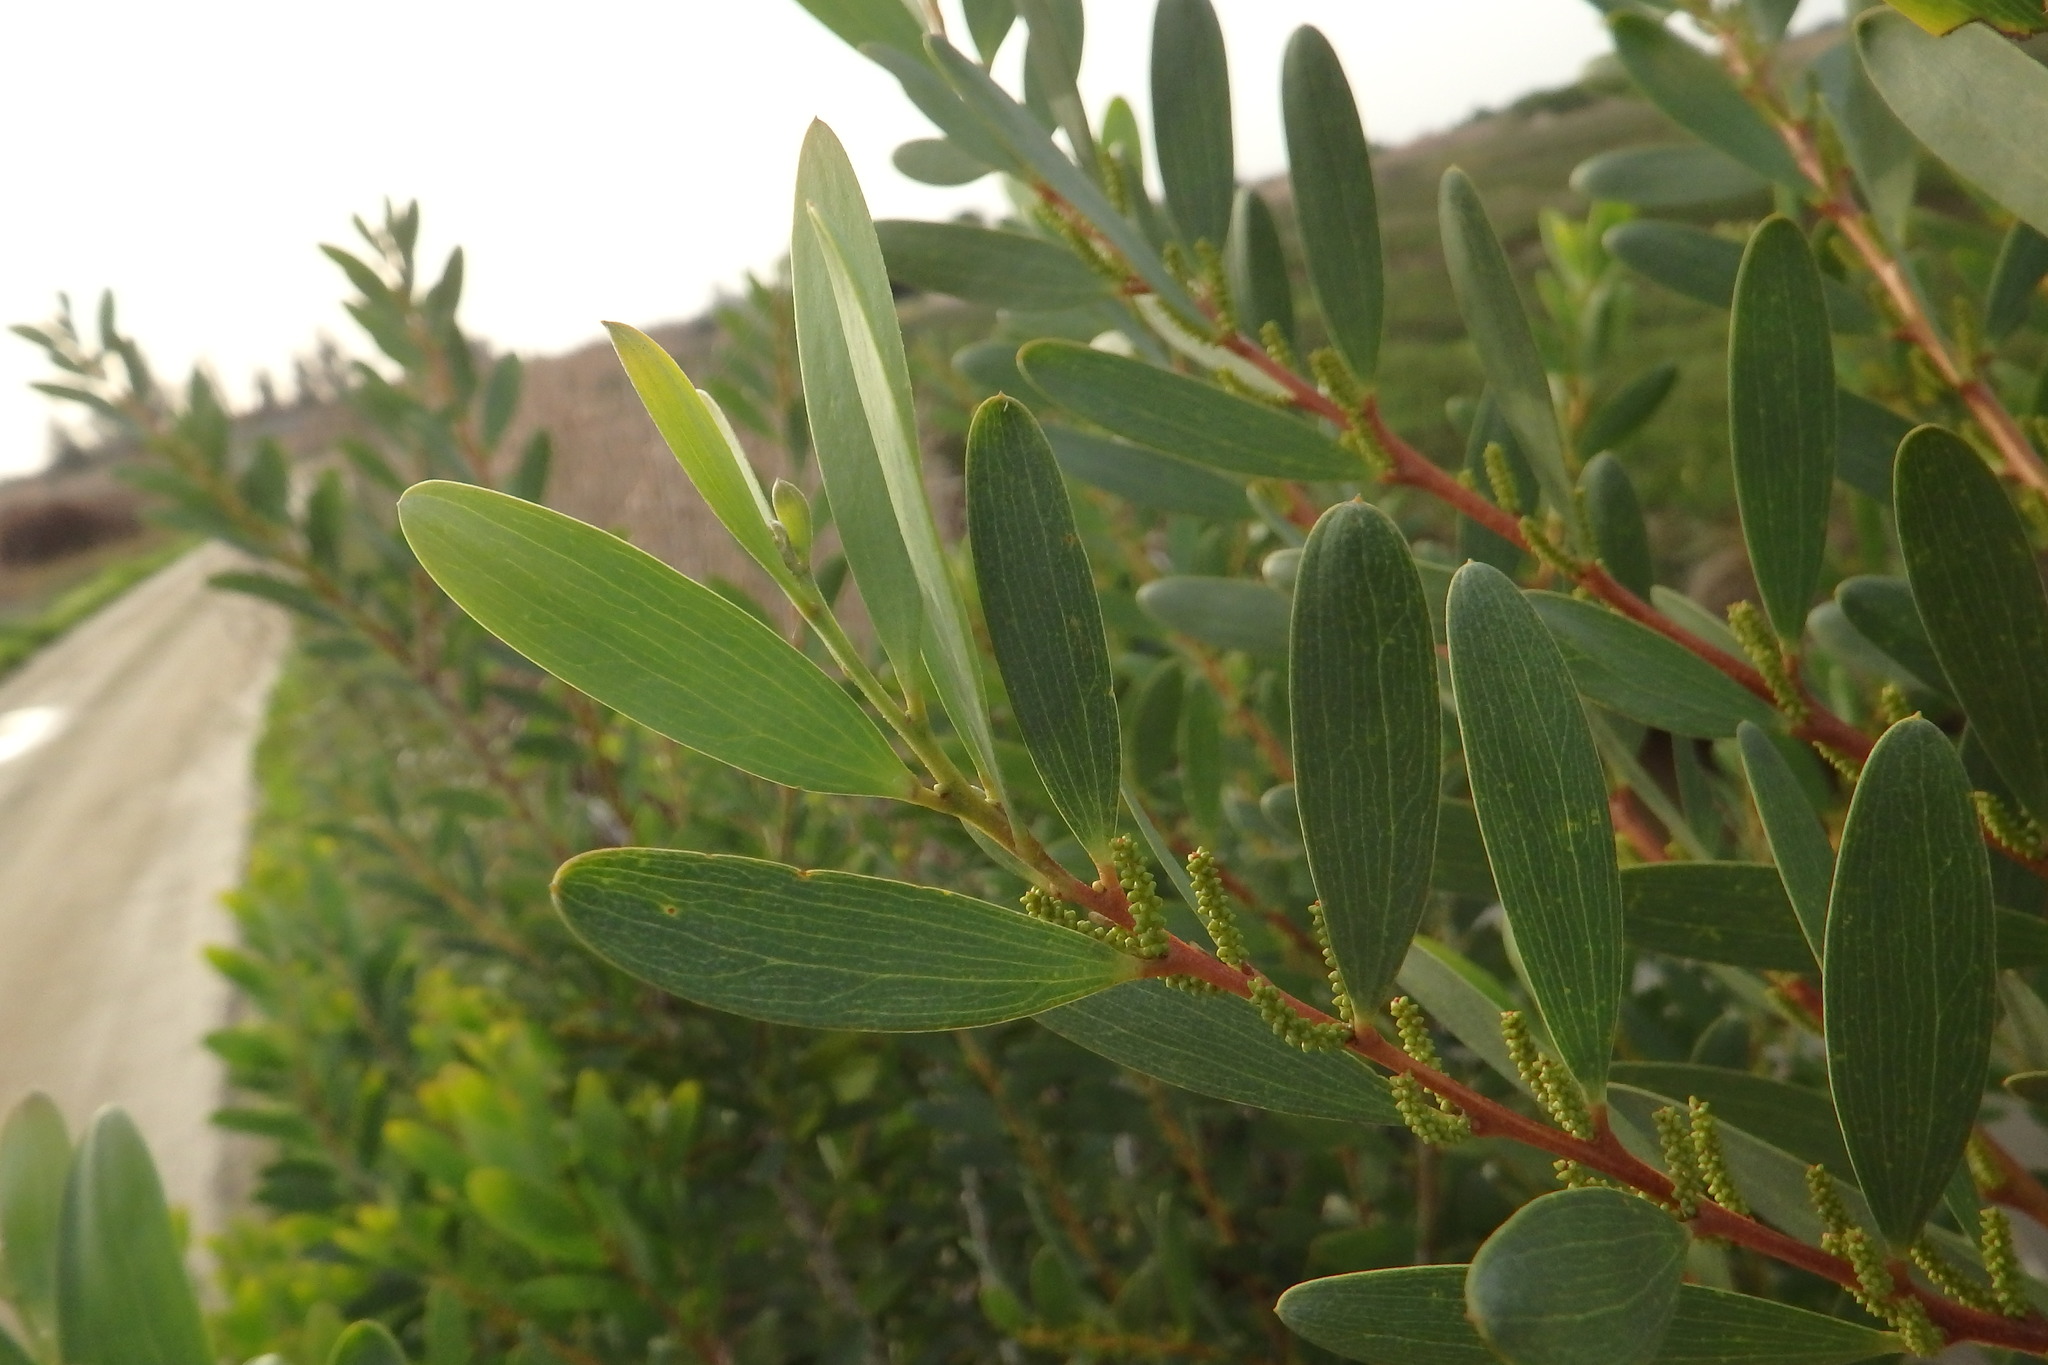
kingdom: Plantae
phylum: Tracheophyta
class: Magnoliopsida
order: Fabales
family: Fabaceae
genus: Acacia
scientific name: Acacia longifolia
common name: Sydney golden wattle
